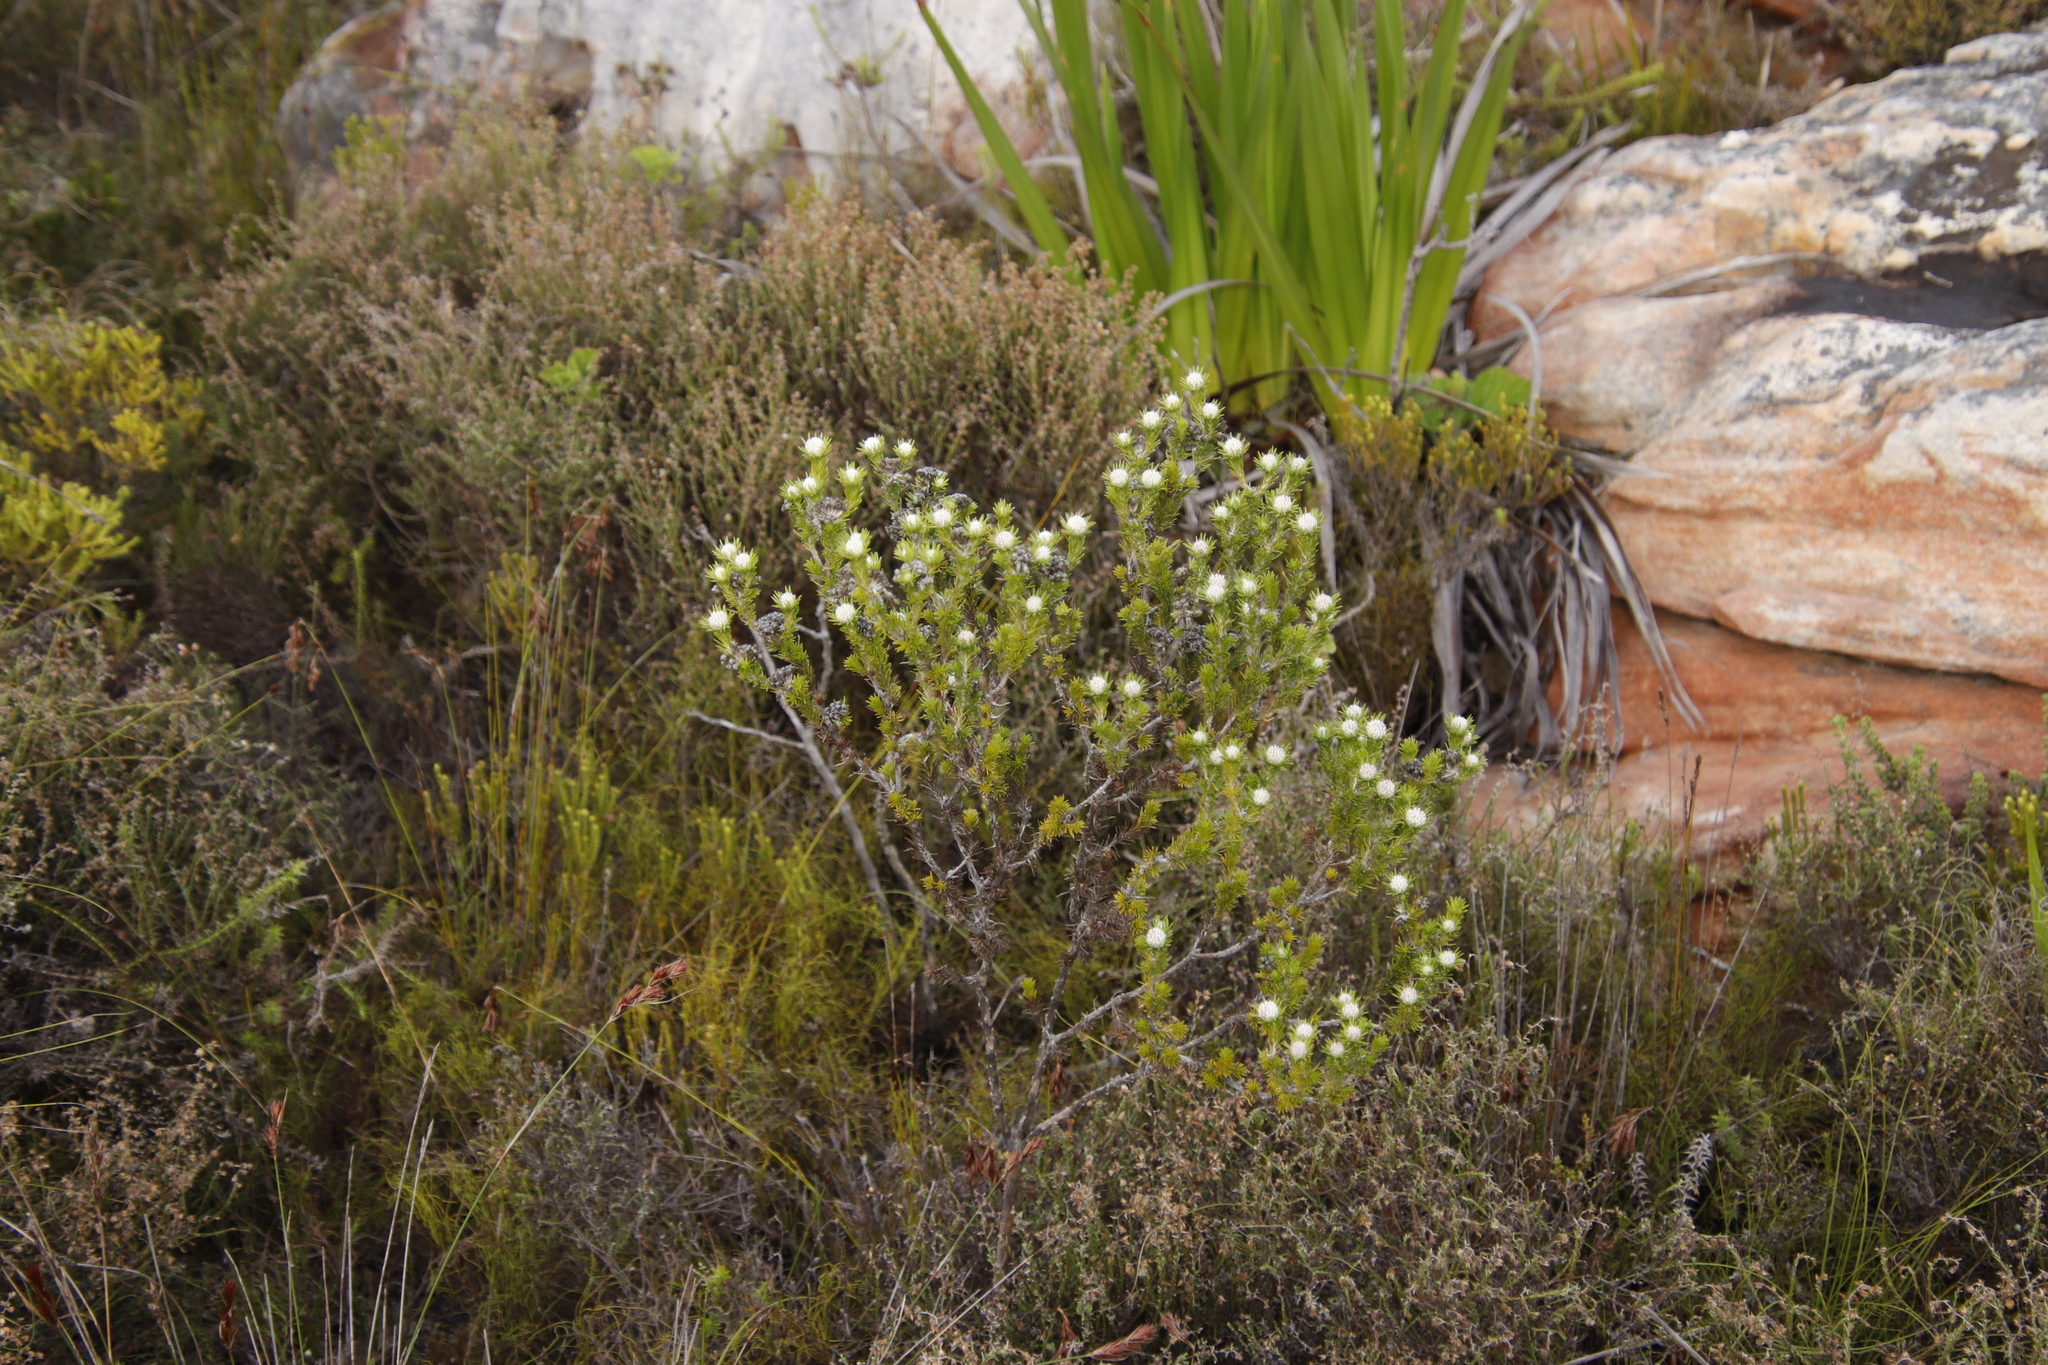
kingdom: Plantae
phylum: Tracheophyta
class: Magnoliopsida
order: Asterales
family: Asteraceae
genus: Metalasia
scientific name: Metalasia compacta
